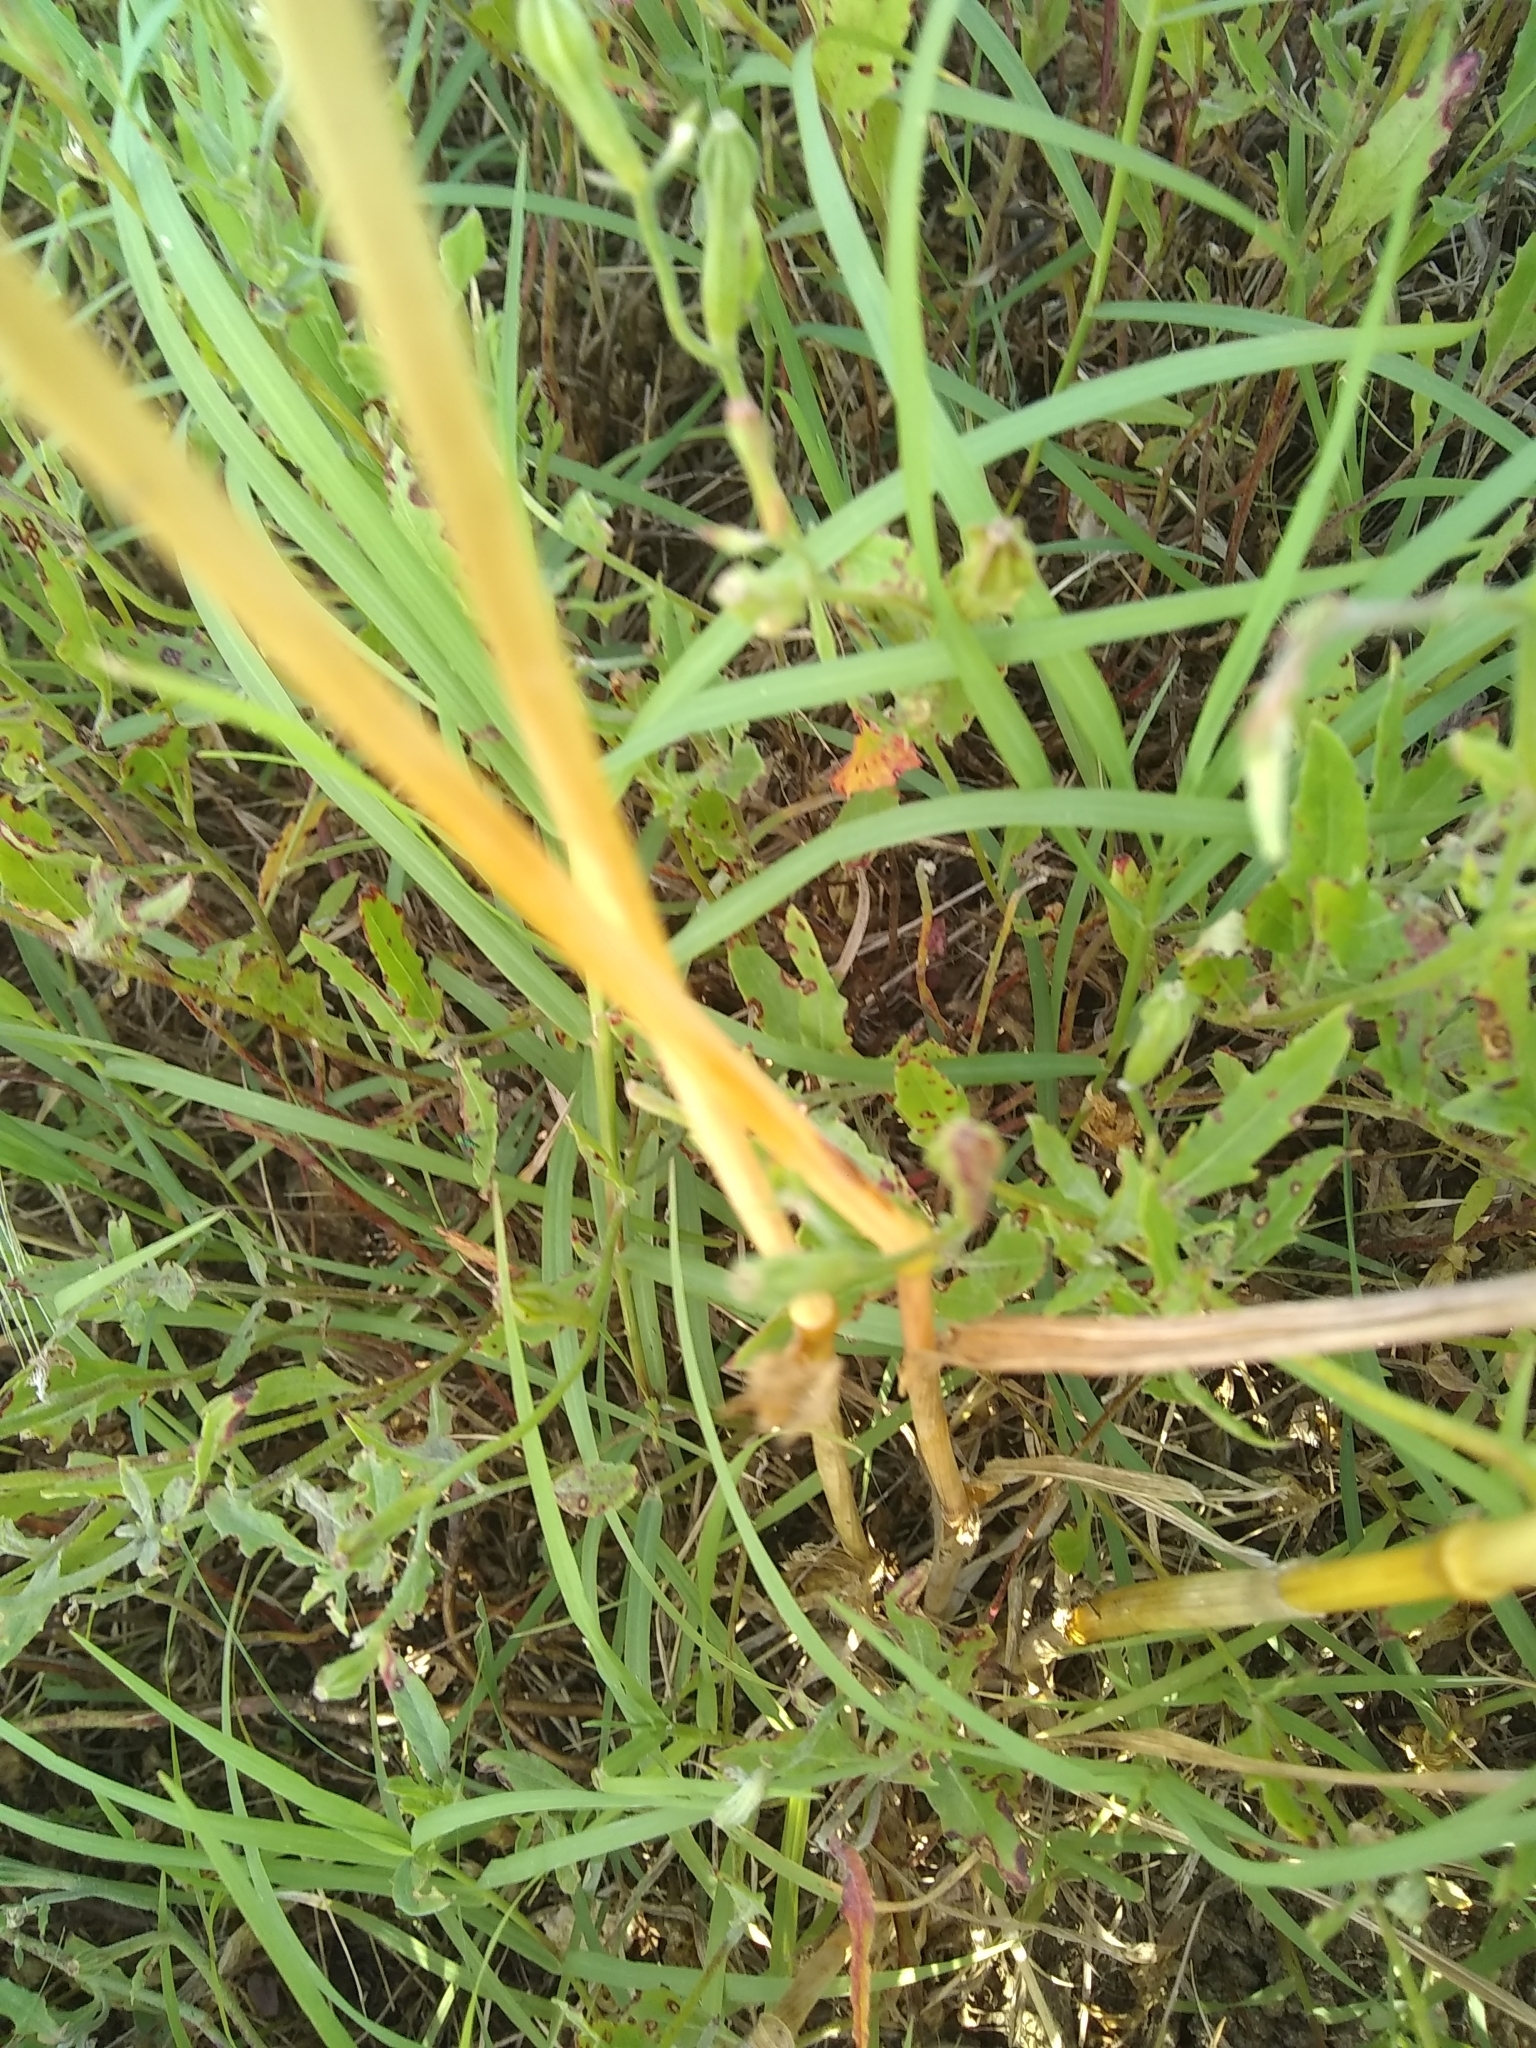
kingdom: Plantae
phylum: Tracheophyta
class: Liliopsida
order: Poales
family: Poaceae
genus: Avena
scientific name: Avena fatua
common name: Wild oat
